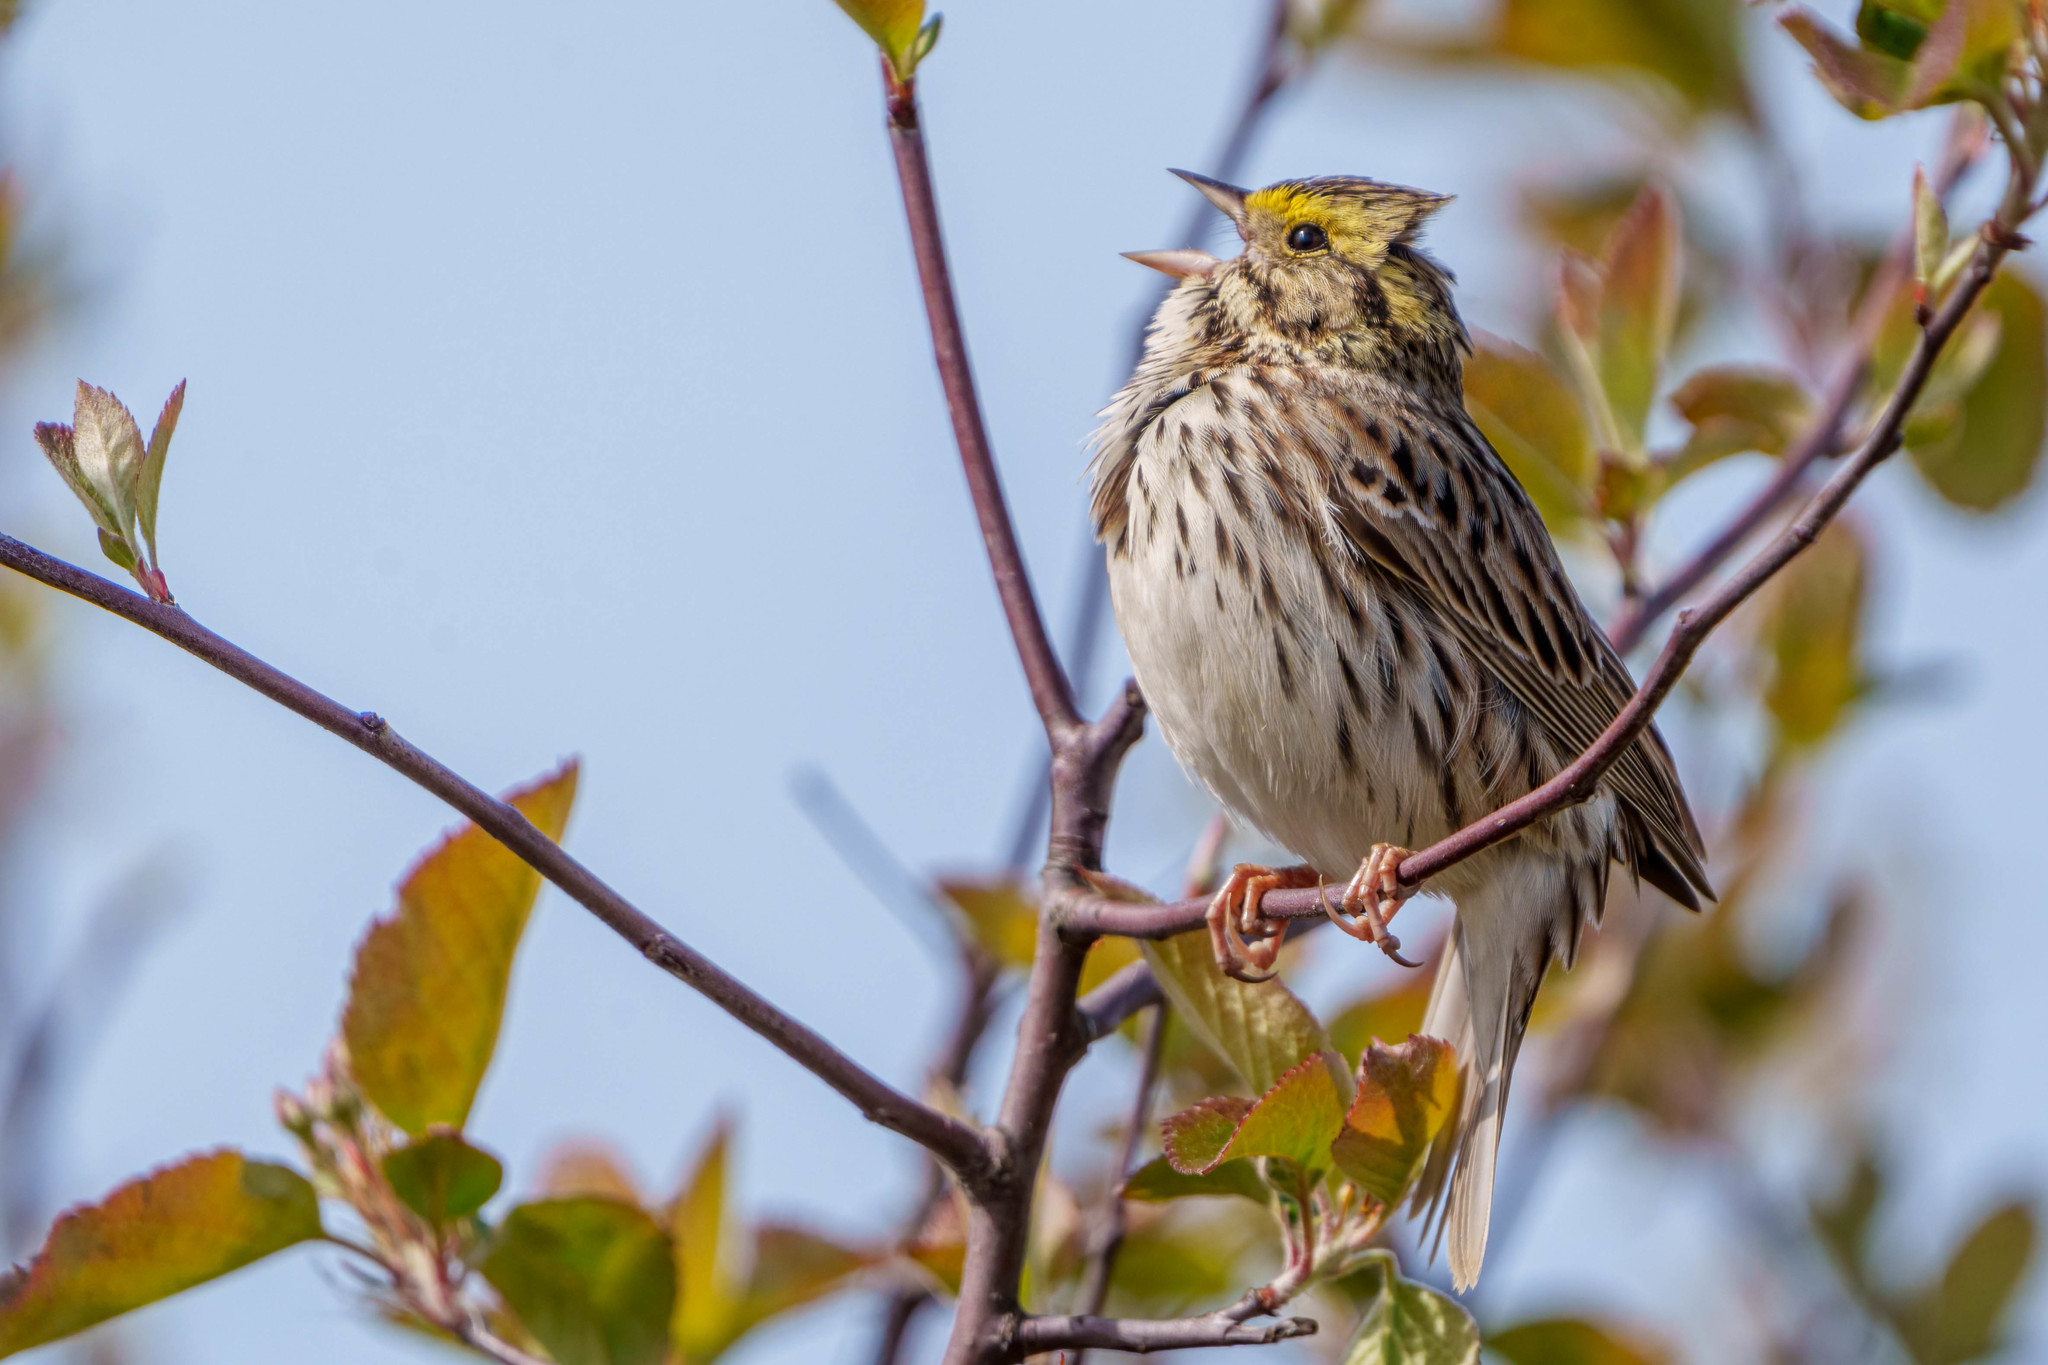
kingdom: Animalia
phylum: Chordata
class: Aves
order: Passeriformes
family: Passerellidae
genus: Passerculus
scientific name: Passerculus sandwichensis
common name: Savannah sparrow
